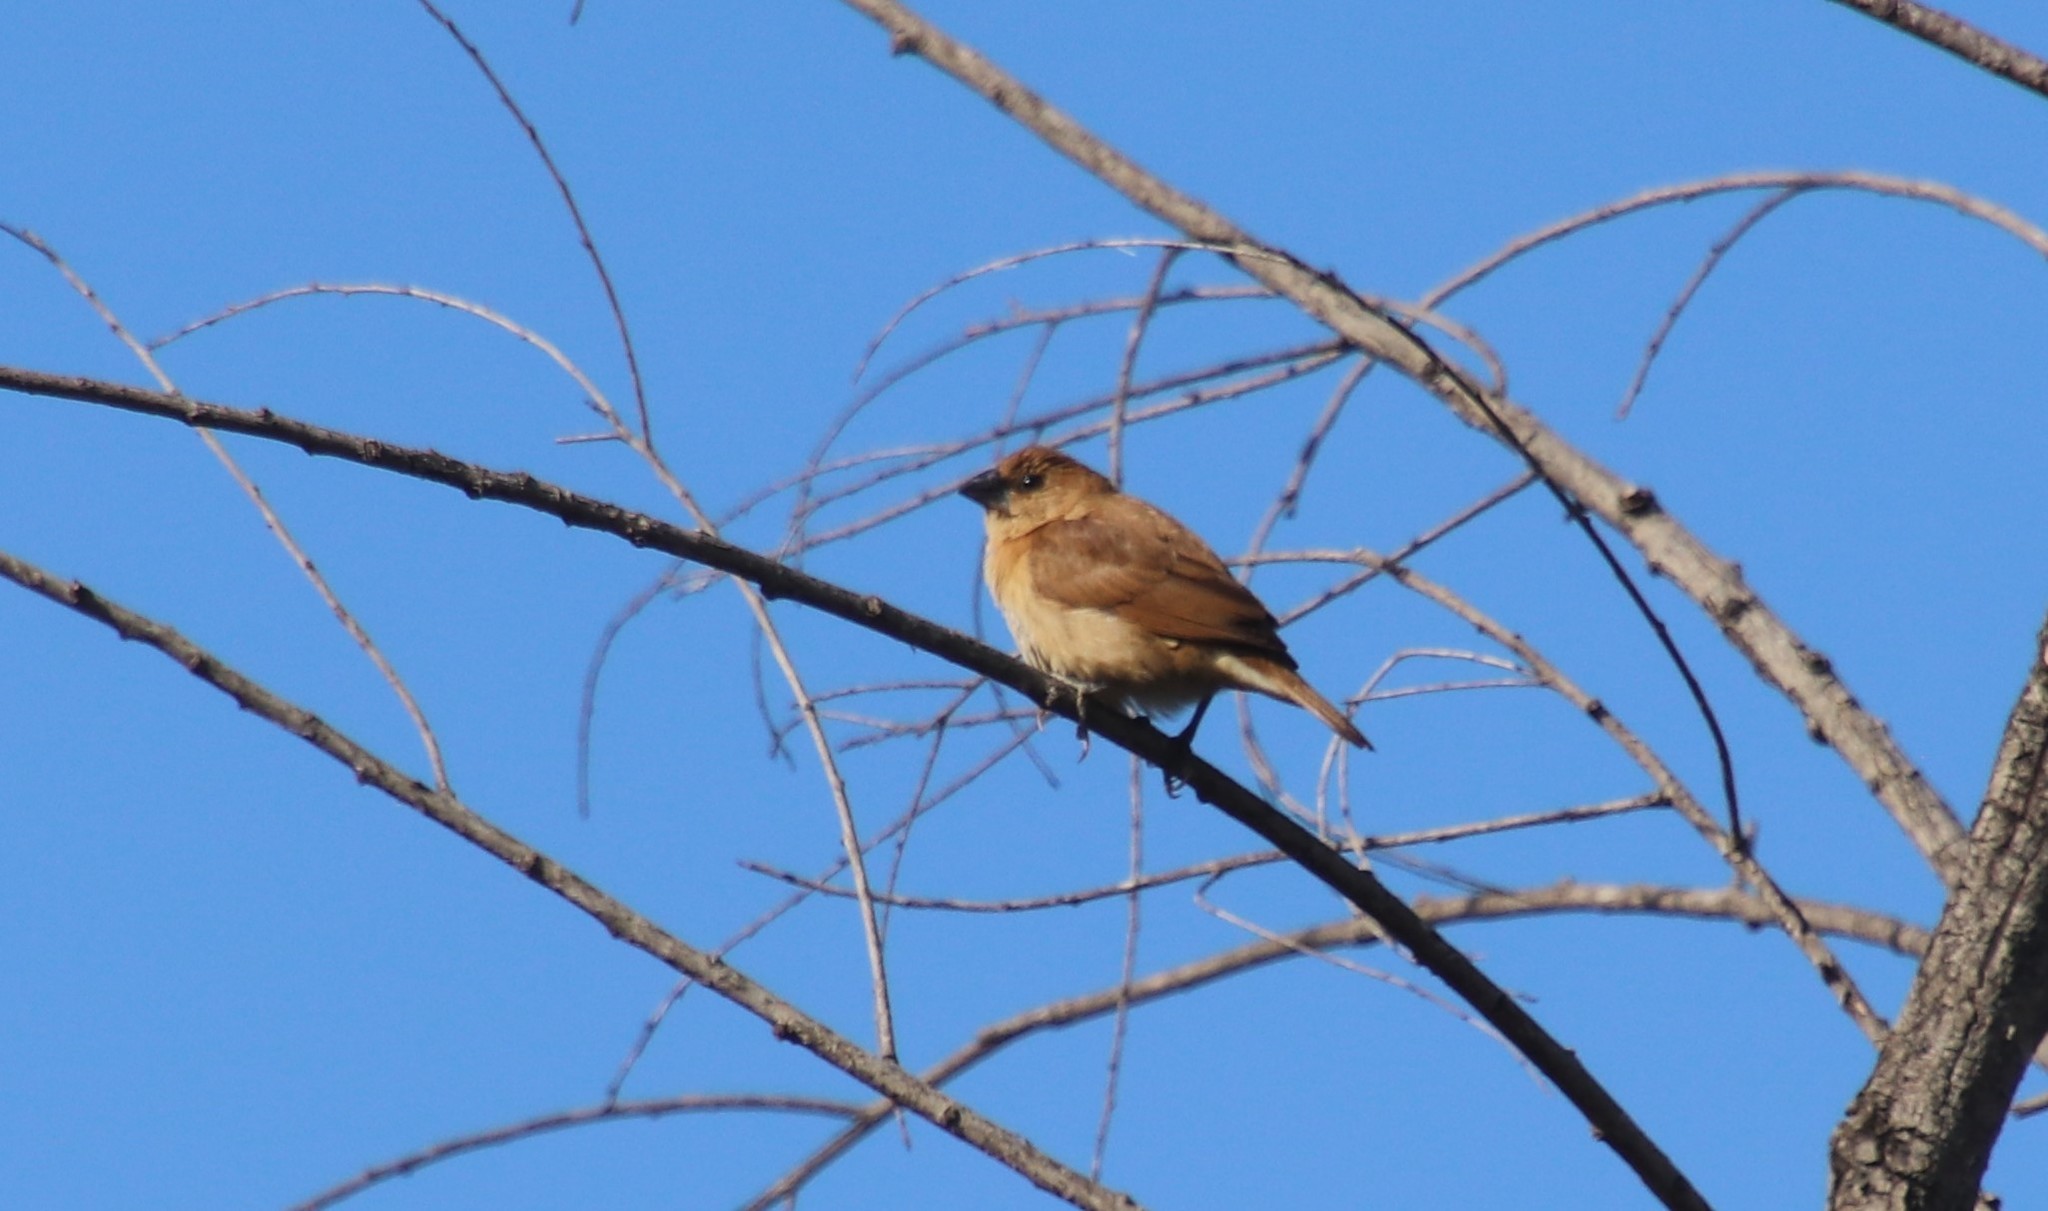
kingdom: Animalia
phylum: Chordata
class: Aves
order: Passeriformes
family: Estrildidae
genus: Lonchura
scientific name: Lonchura punctulata
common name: Scaly-breasted munia
